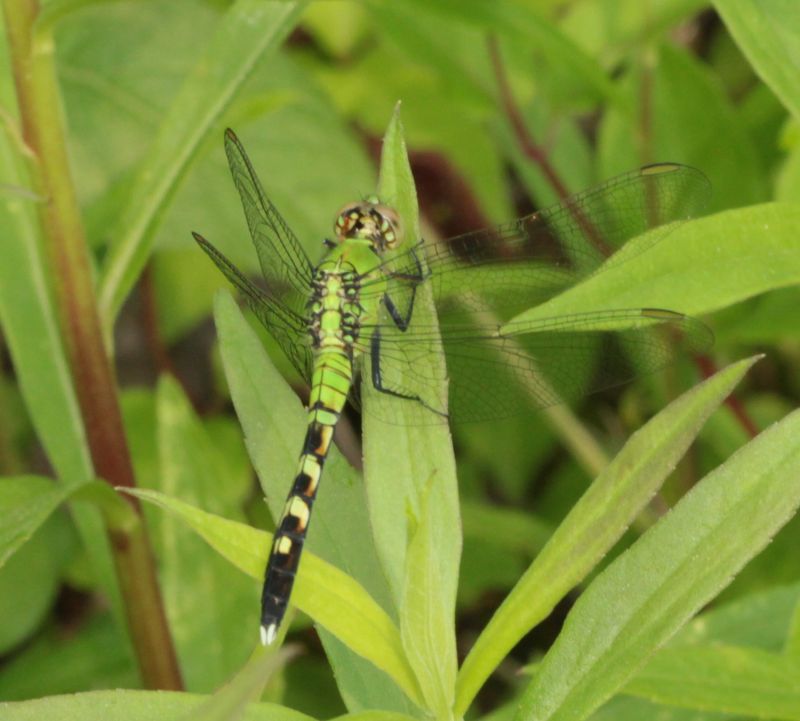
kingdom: Animalia
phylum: Arthropoda
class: Insecta
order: Odonata
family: Libellulidae
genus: Erythemis
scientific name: Erythemis simplicicollis
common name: Eastern pondhawk
